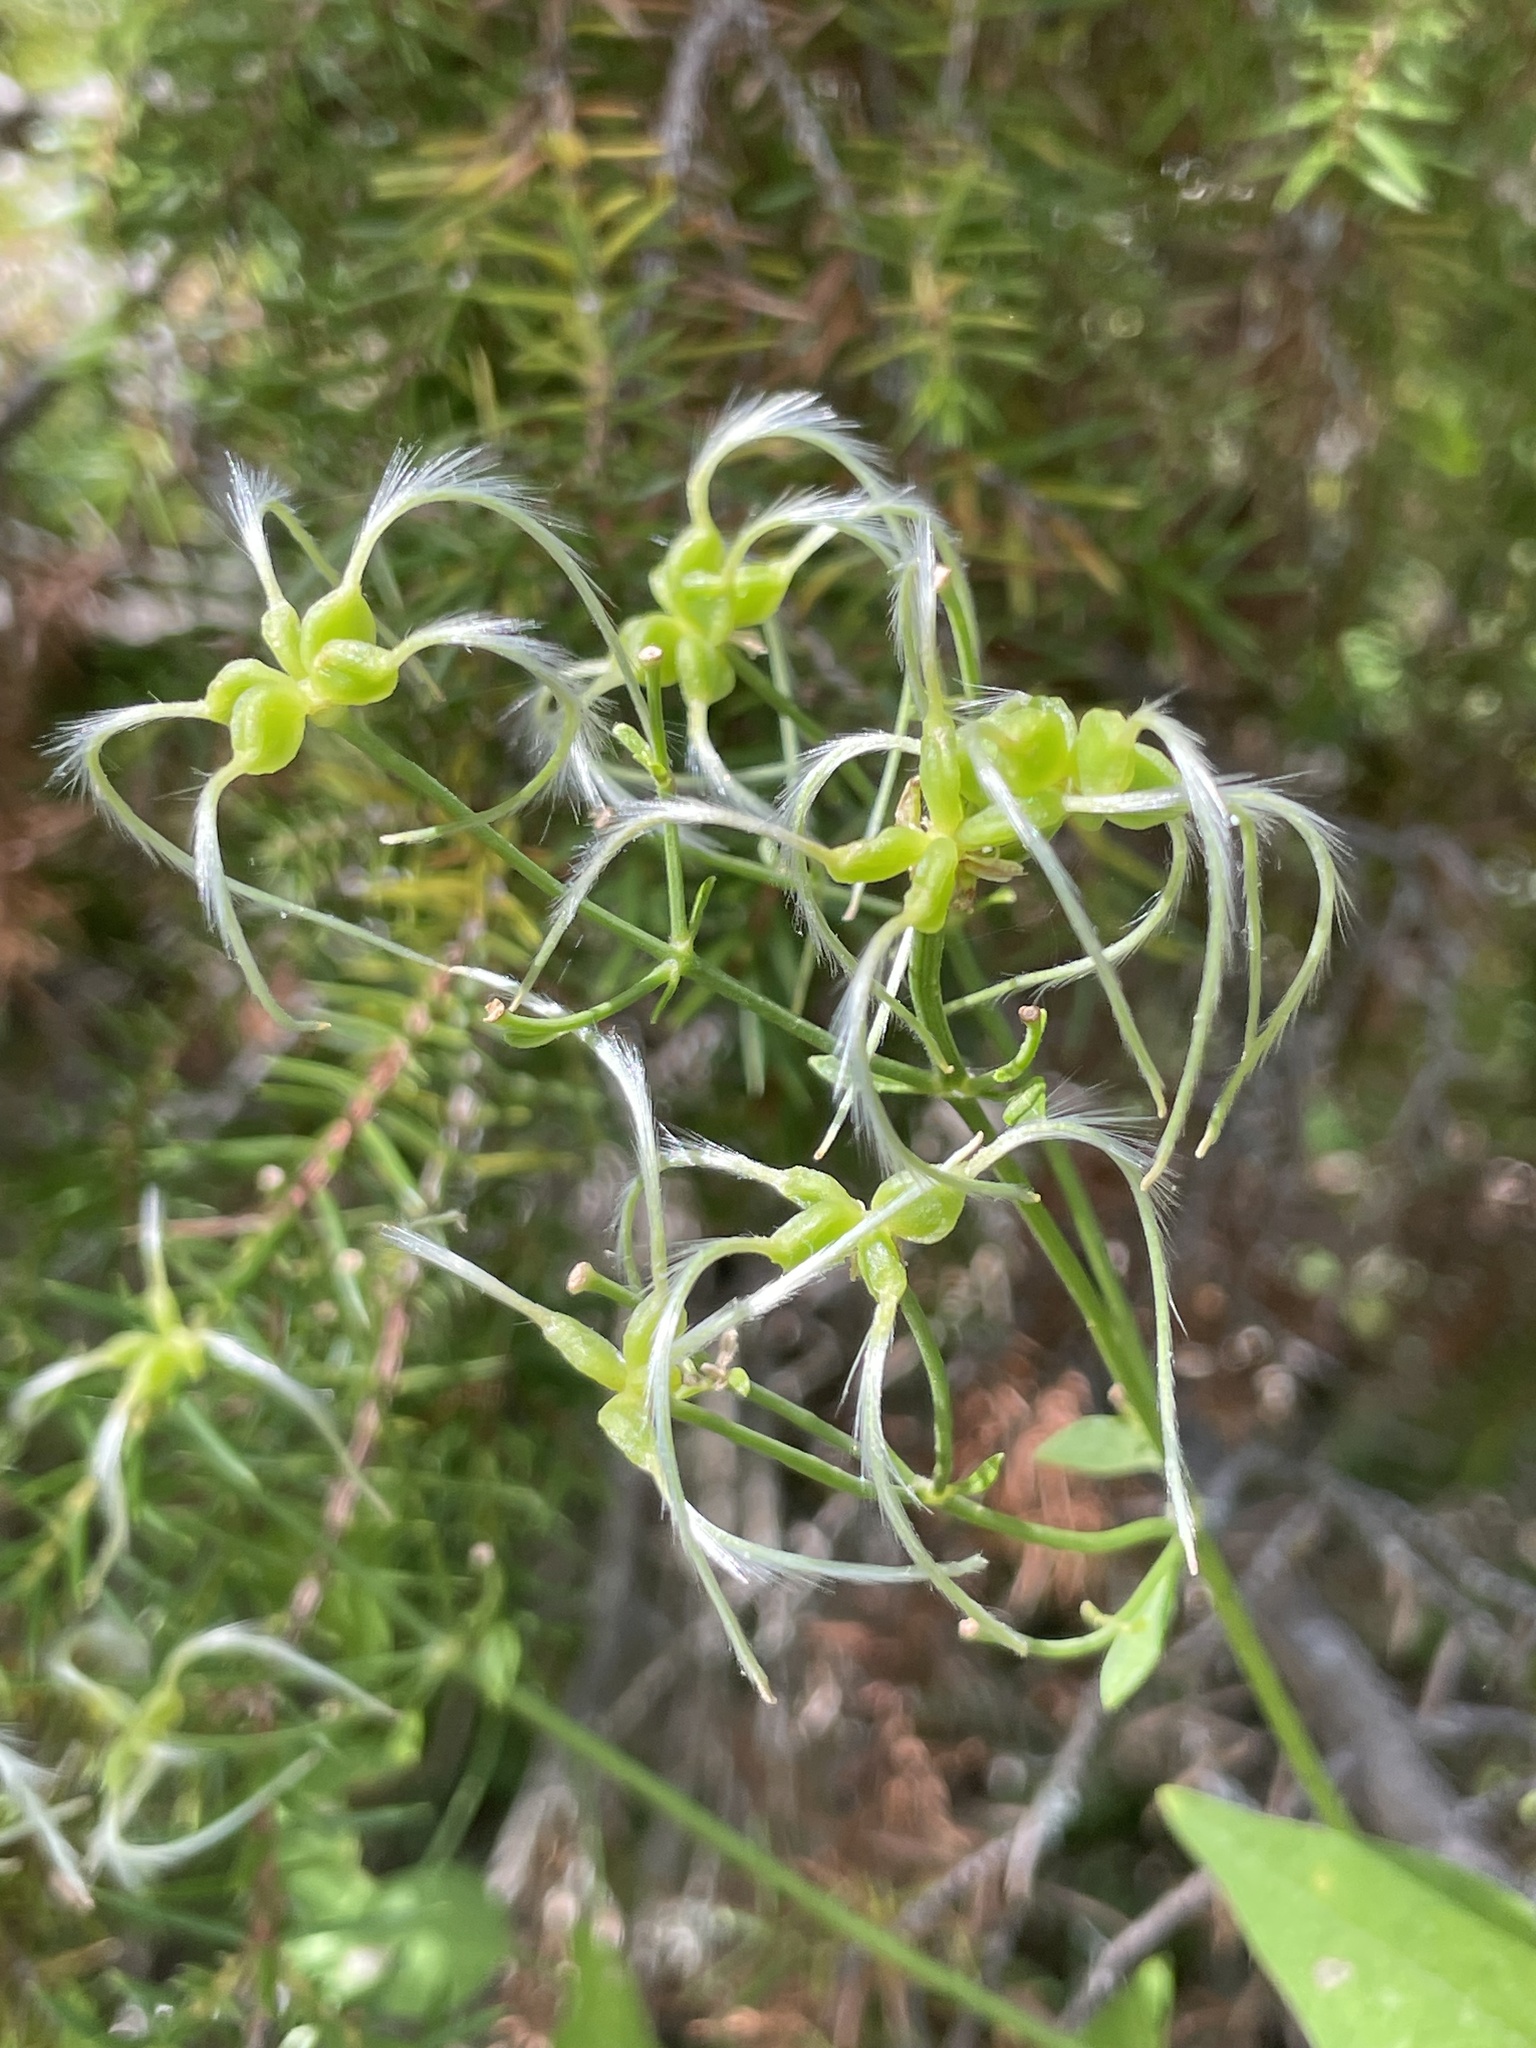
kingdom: Plantae
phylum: Tracheophyta
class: Magnoliopsida
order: Ranunculales
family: Ranunculaceae
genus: Clematis
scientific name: Clematis flammula
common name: Virgin's-bower
